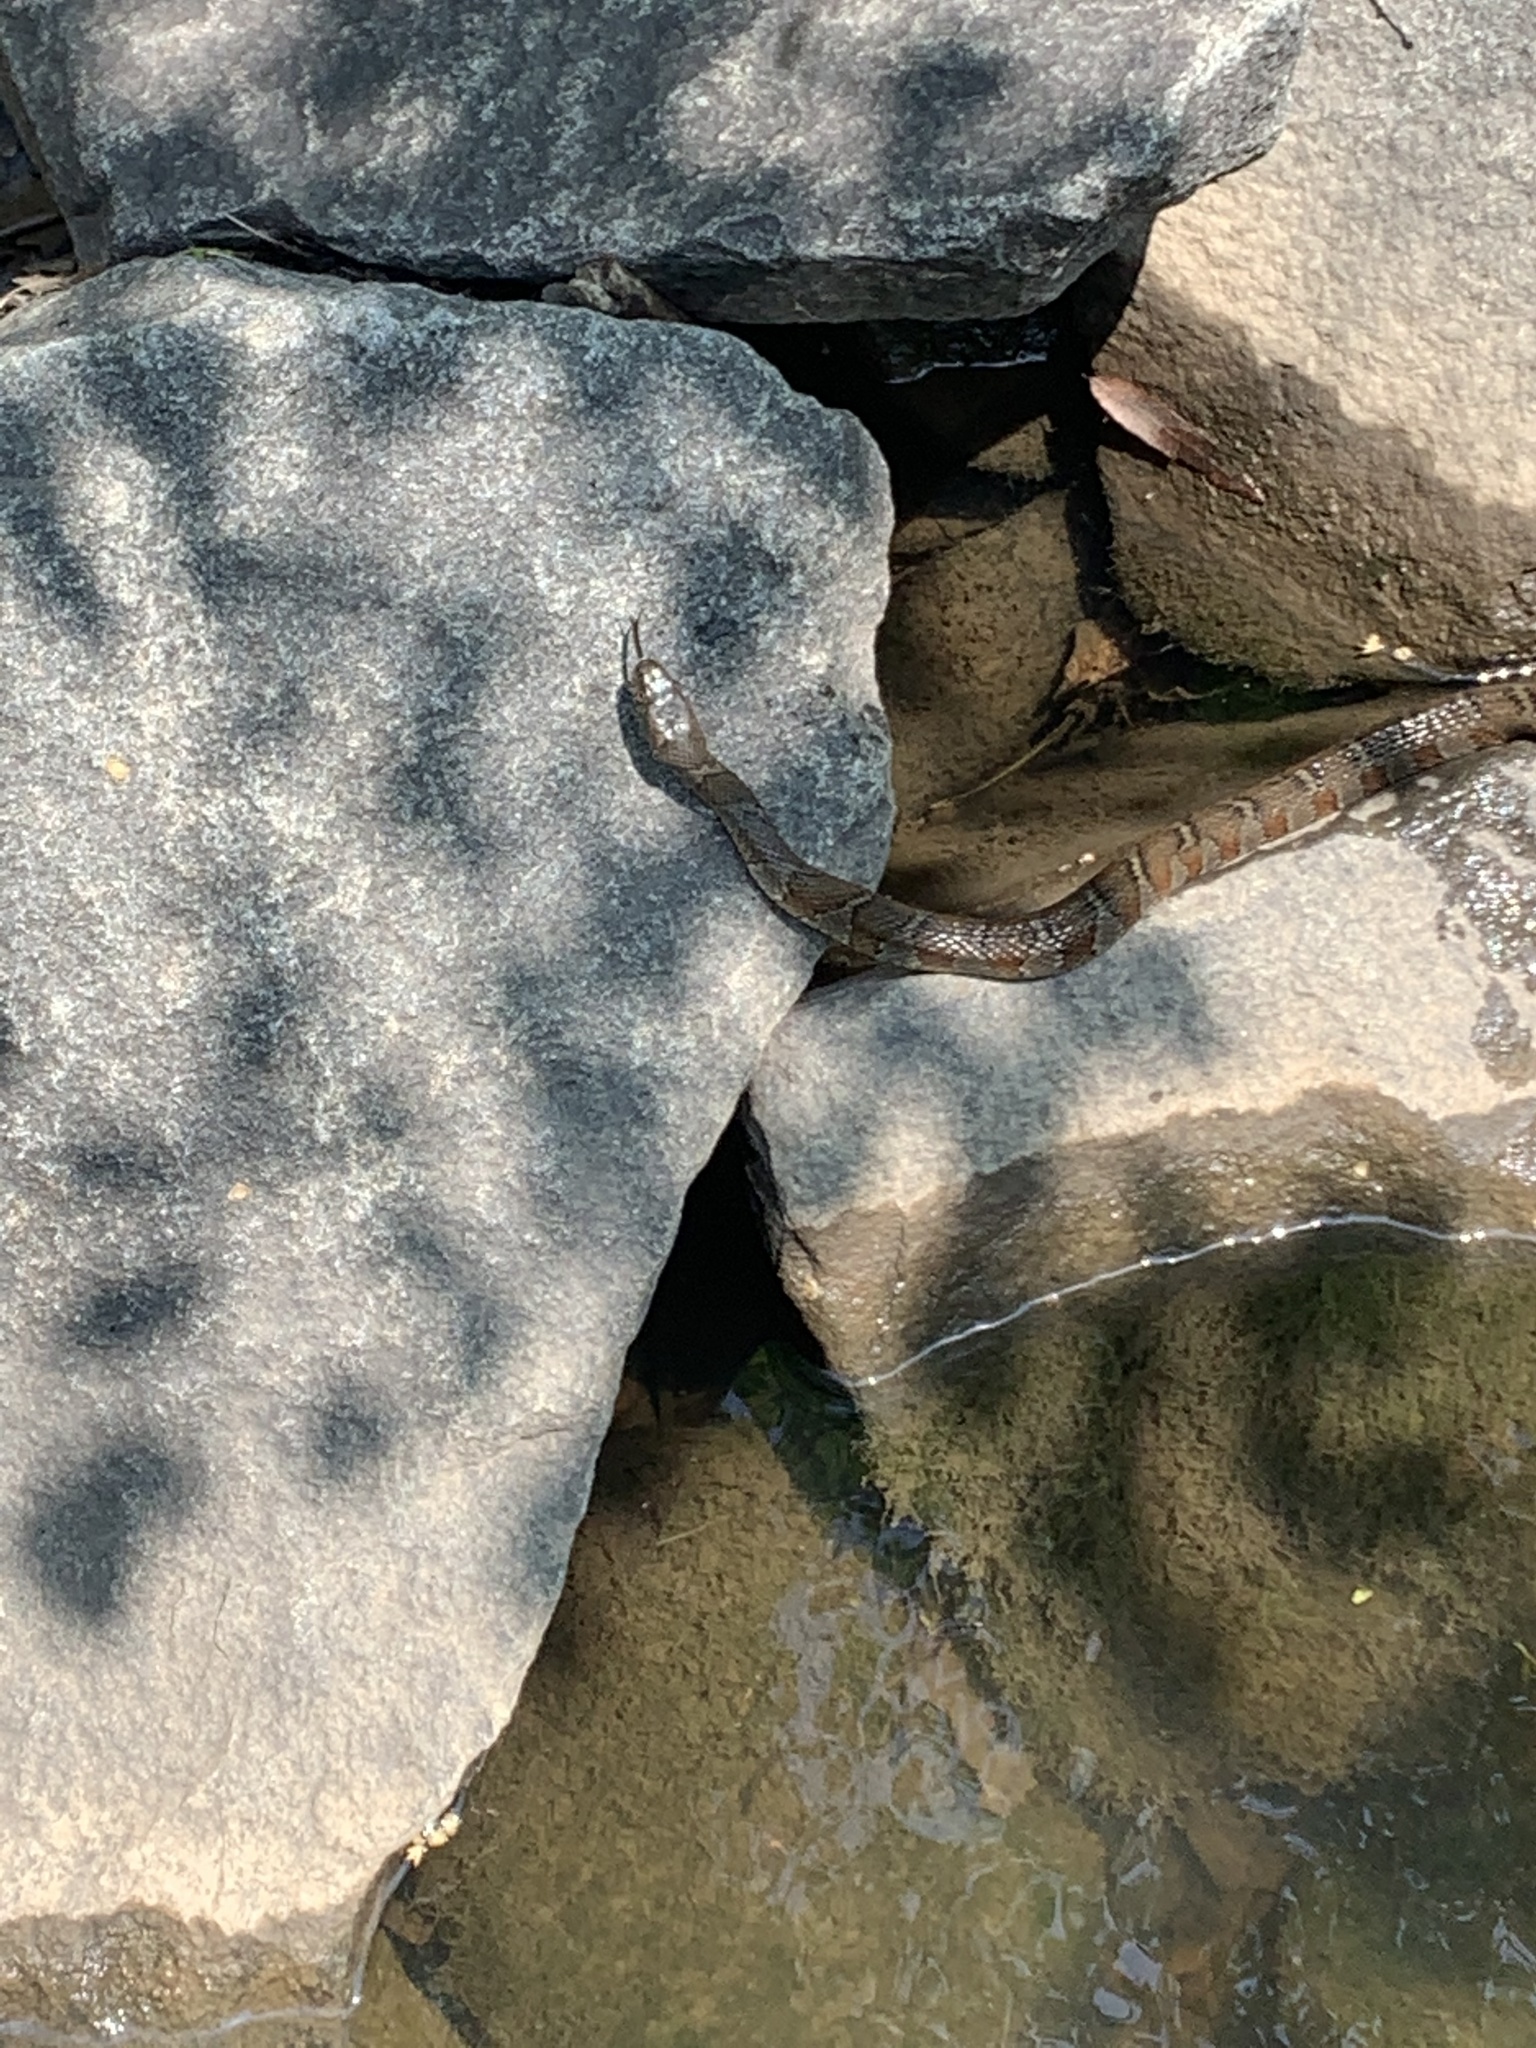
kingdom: Animalia
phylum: Chordata
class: Squamata
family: Colubridae
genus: Nerodia
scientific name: Nerodia sipedon
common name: Northern water snake
